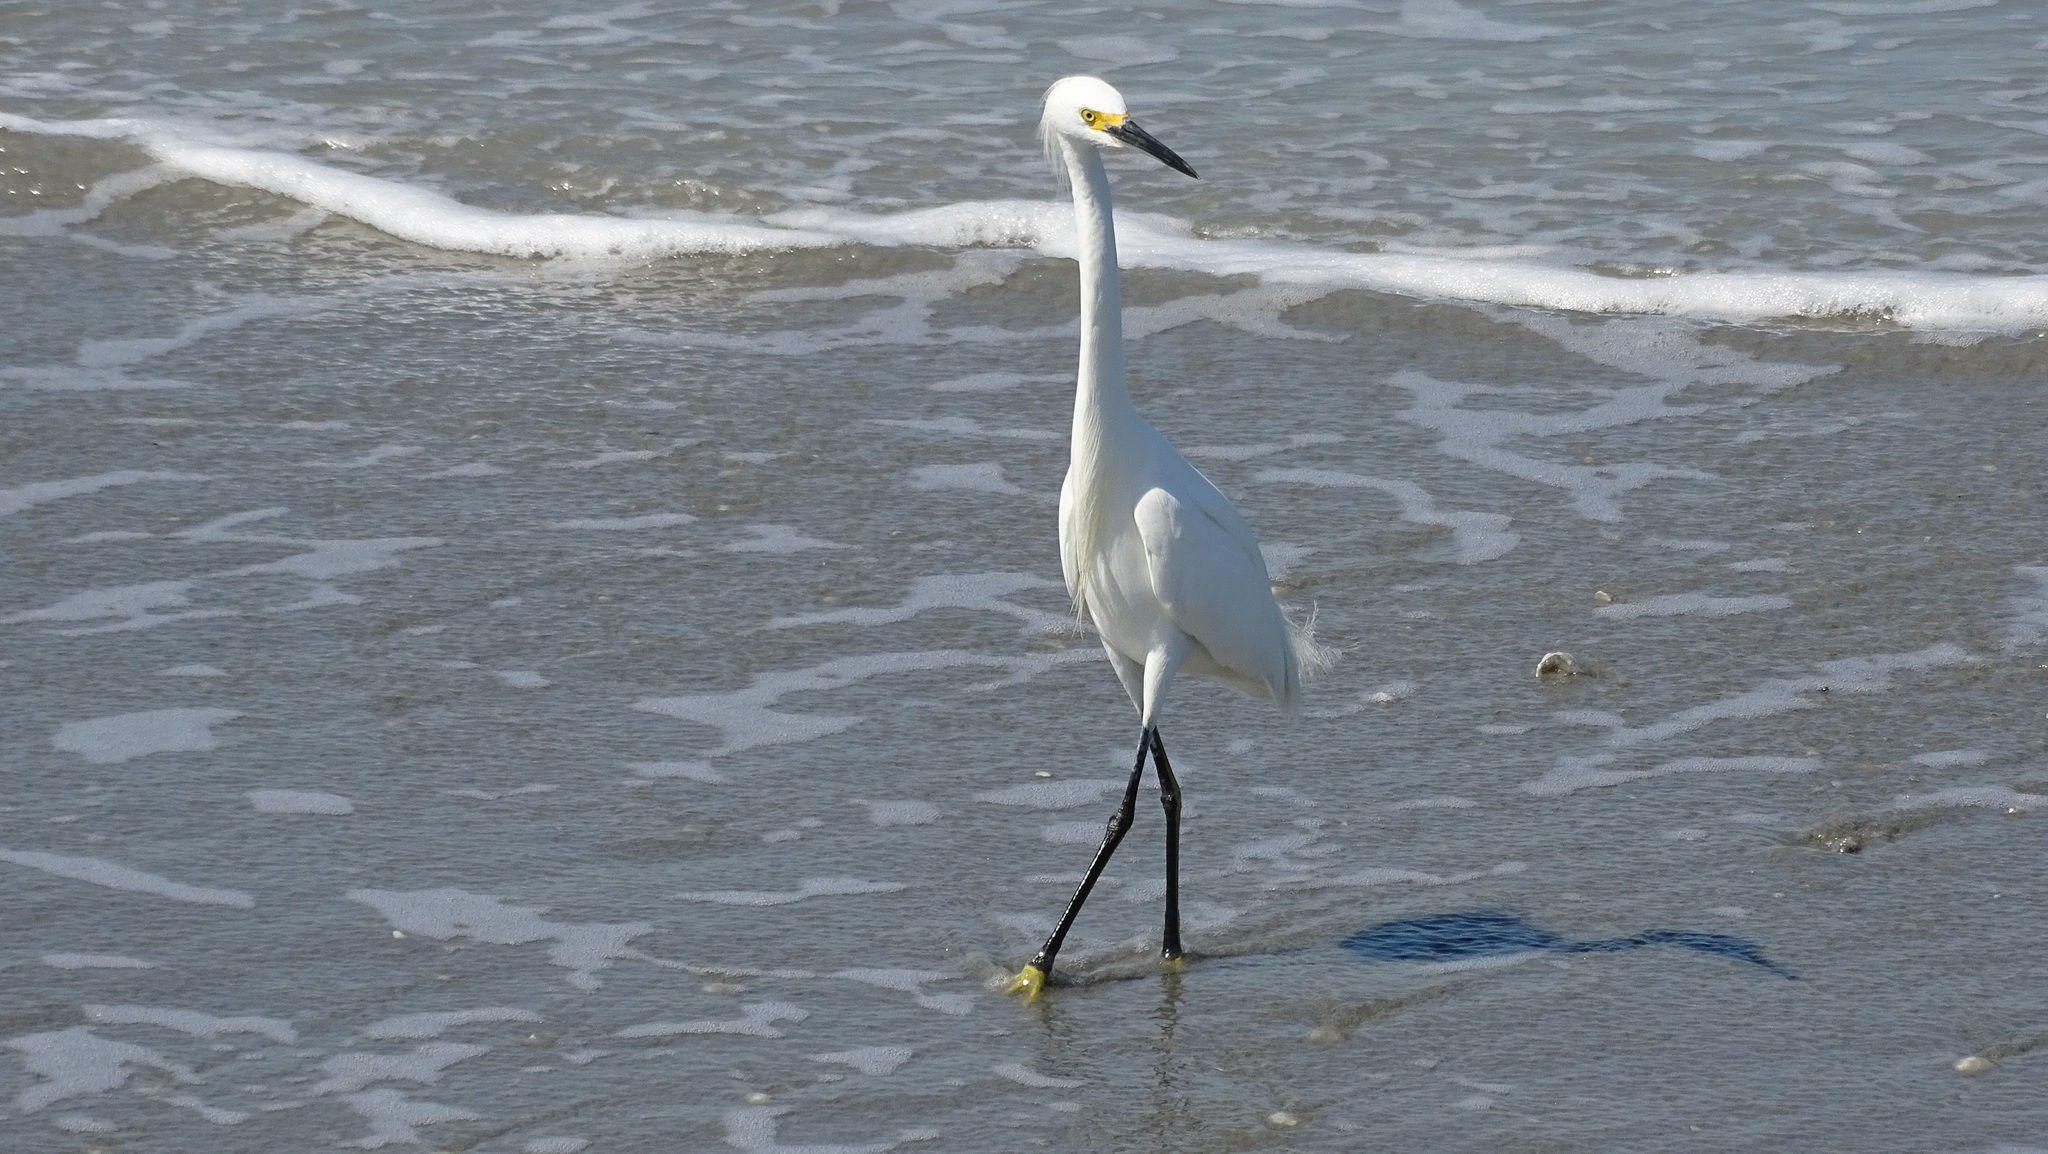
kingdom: Animalia
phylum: Chordata
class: Aves
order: Pelecaniformes
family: Ardeidae
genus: Egretta
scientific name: Egretta thula
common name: Snowy egret
